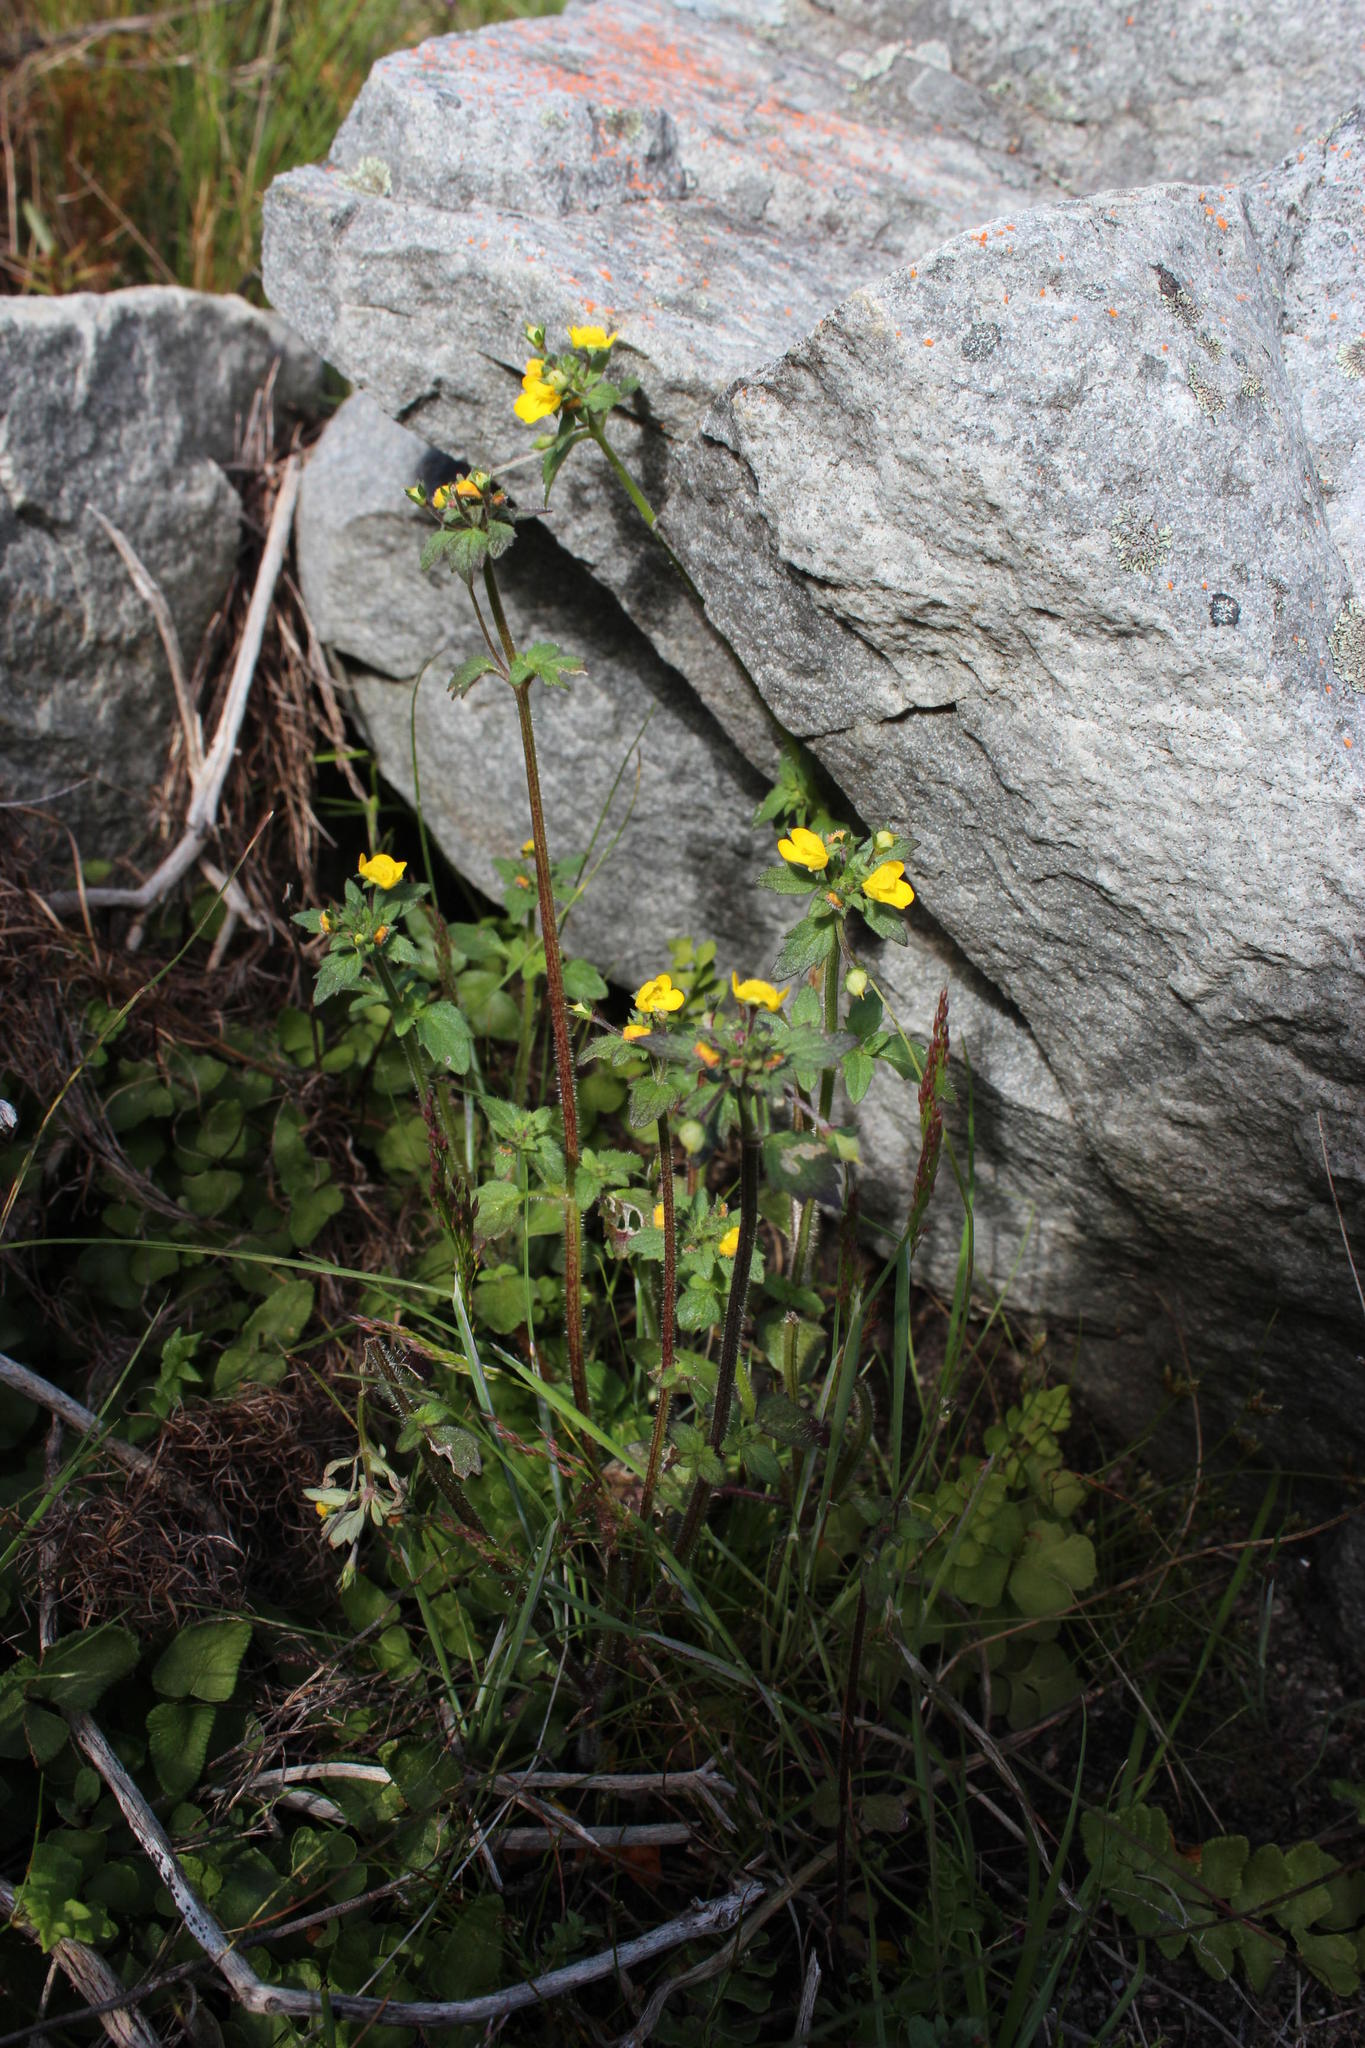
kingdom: Plantae
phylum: Tracheophyta
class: Magnoliopsida
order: Lamiales
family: Scrophulariaceae
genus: Hemimeris
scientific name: Hemimeris racemosa
